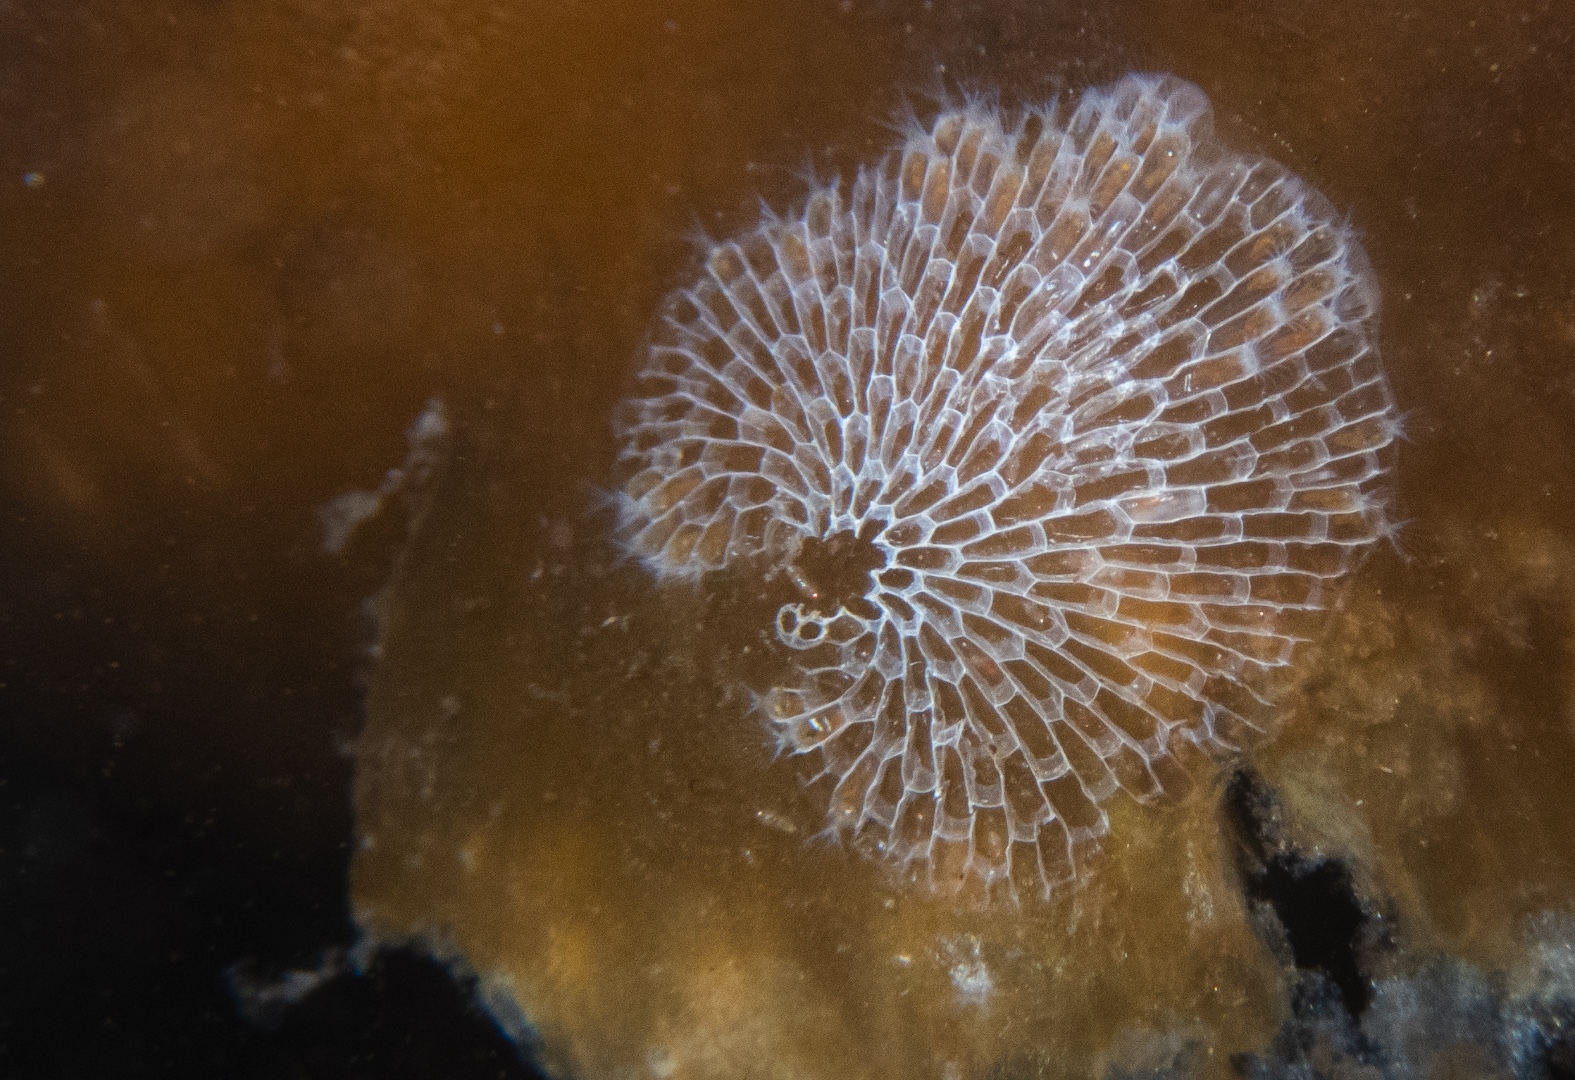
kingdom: Animalia
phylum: Bryozoa
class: Gymnolaemata
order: Cheilostomatida
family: Membraniporidae
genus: Membranipora
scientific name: Membranipora membranacea
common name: Sea mat
